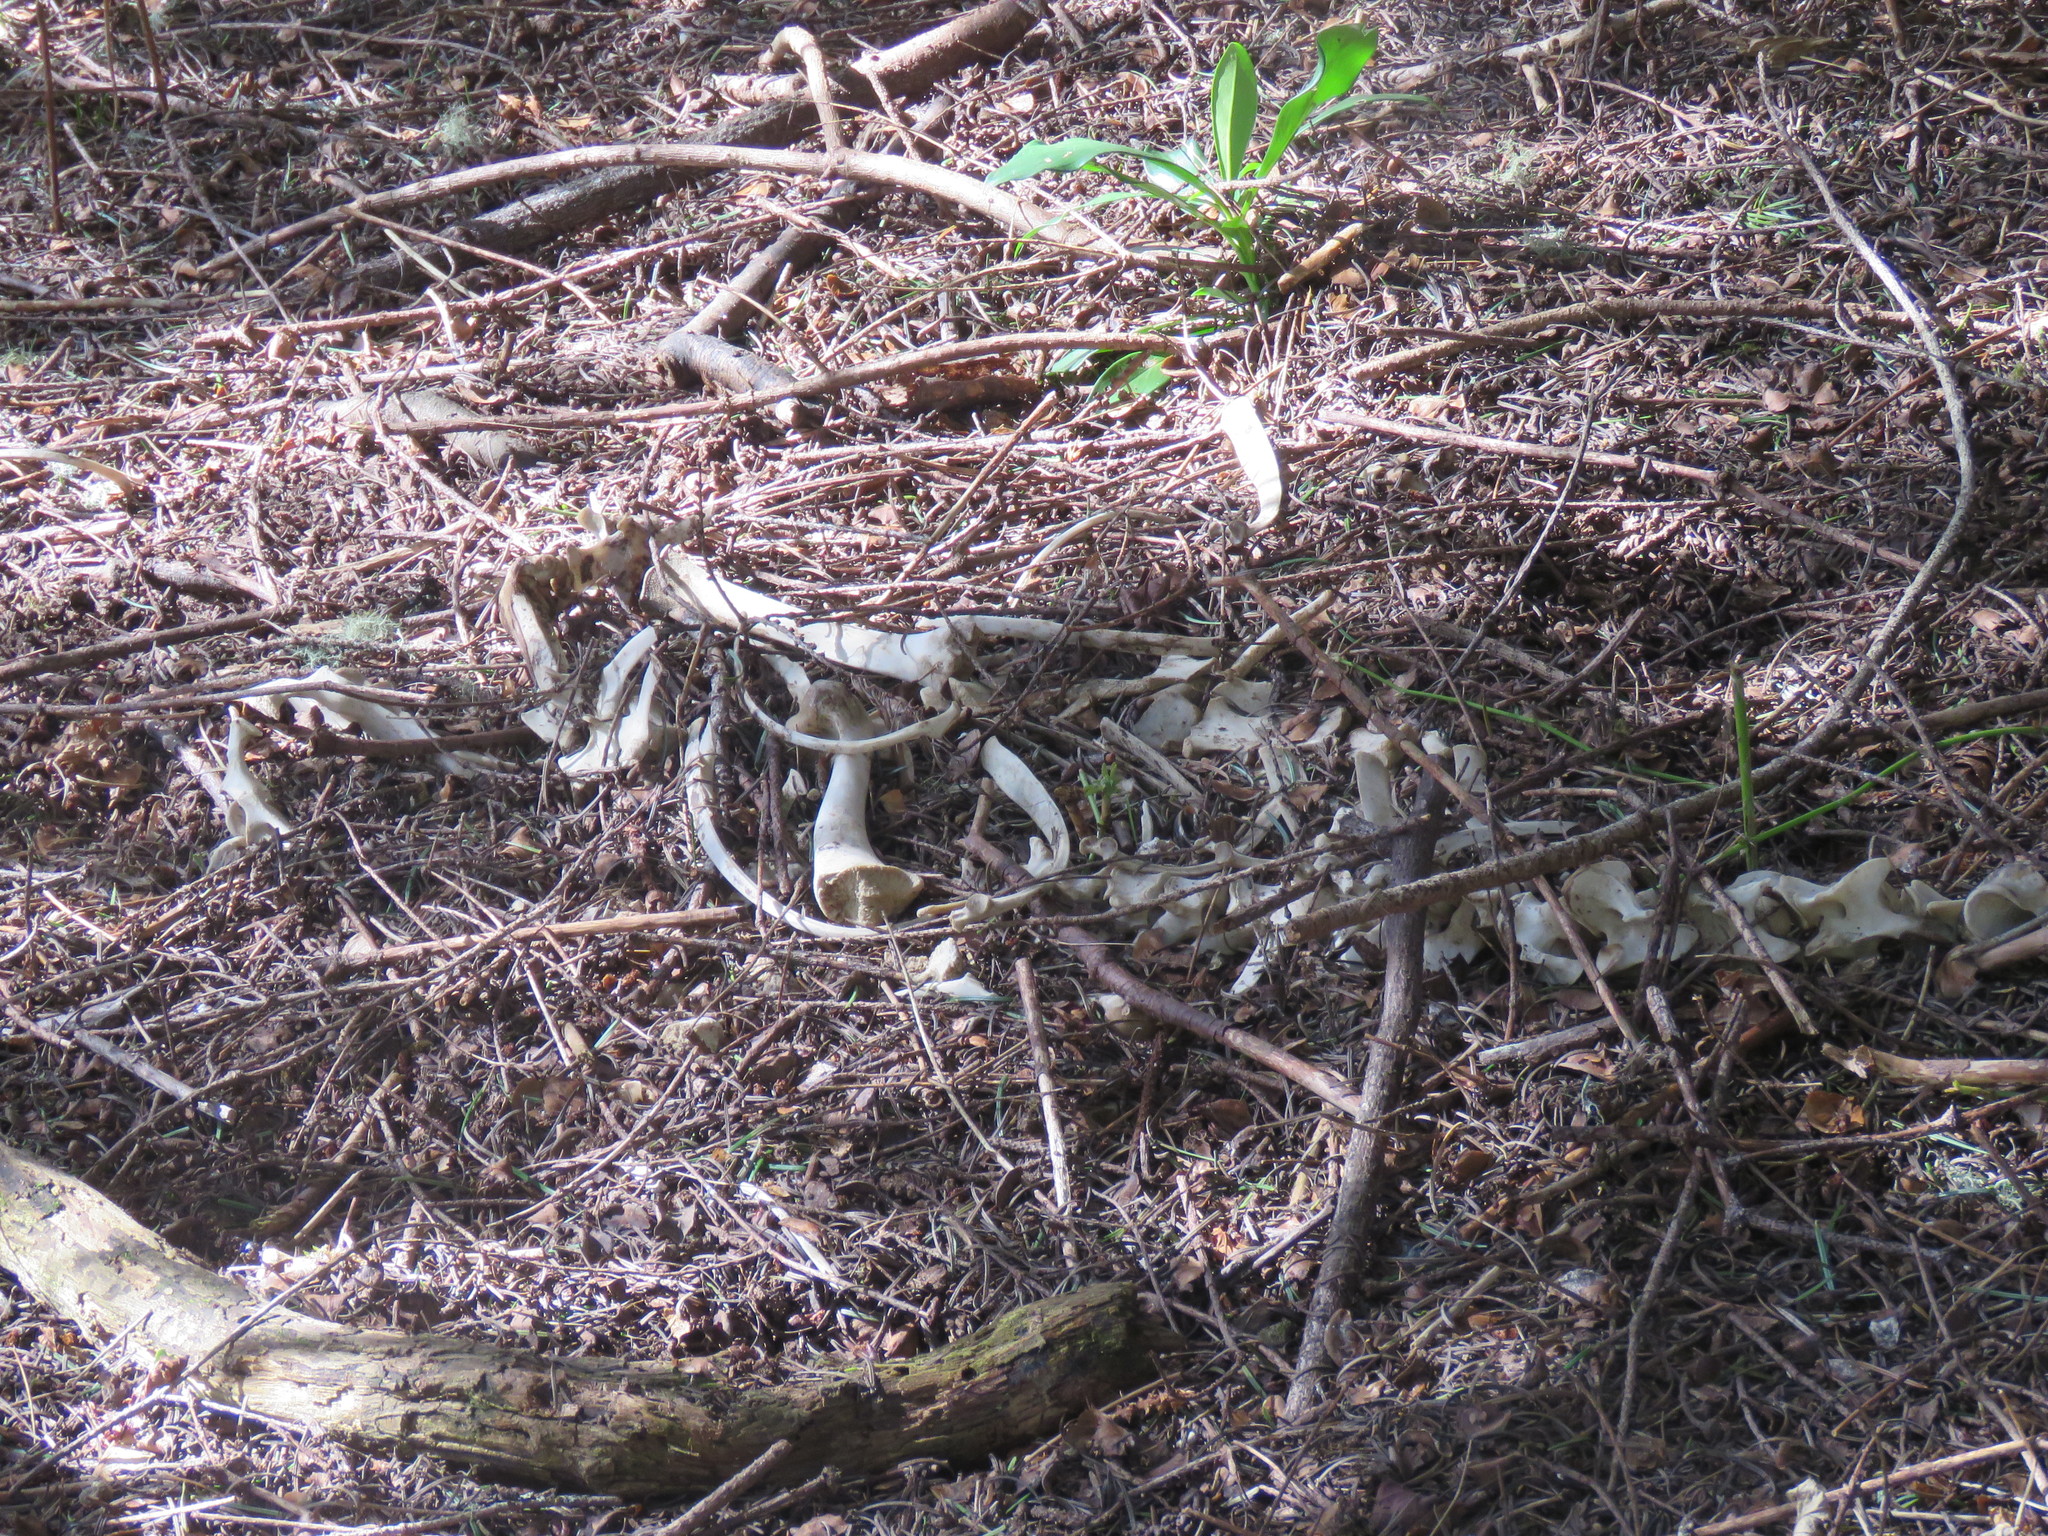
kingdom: Animalia
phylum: Chordata
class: Mammalia
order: Artiodactyla
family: Cervidae
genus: Odocoileus
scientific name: Odocoileus hemionus
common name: Mule deer
